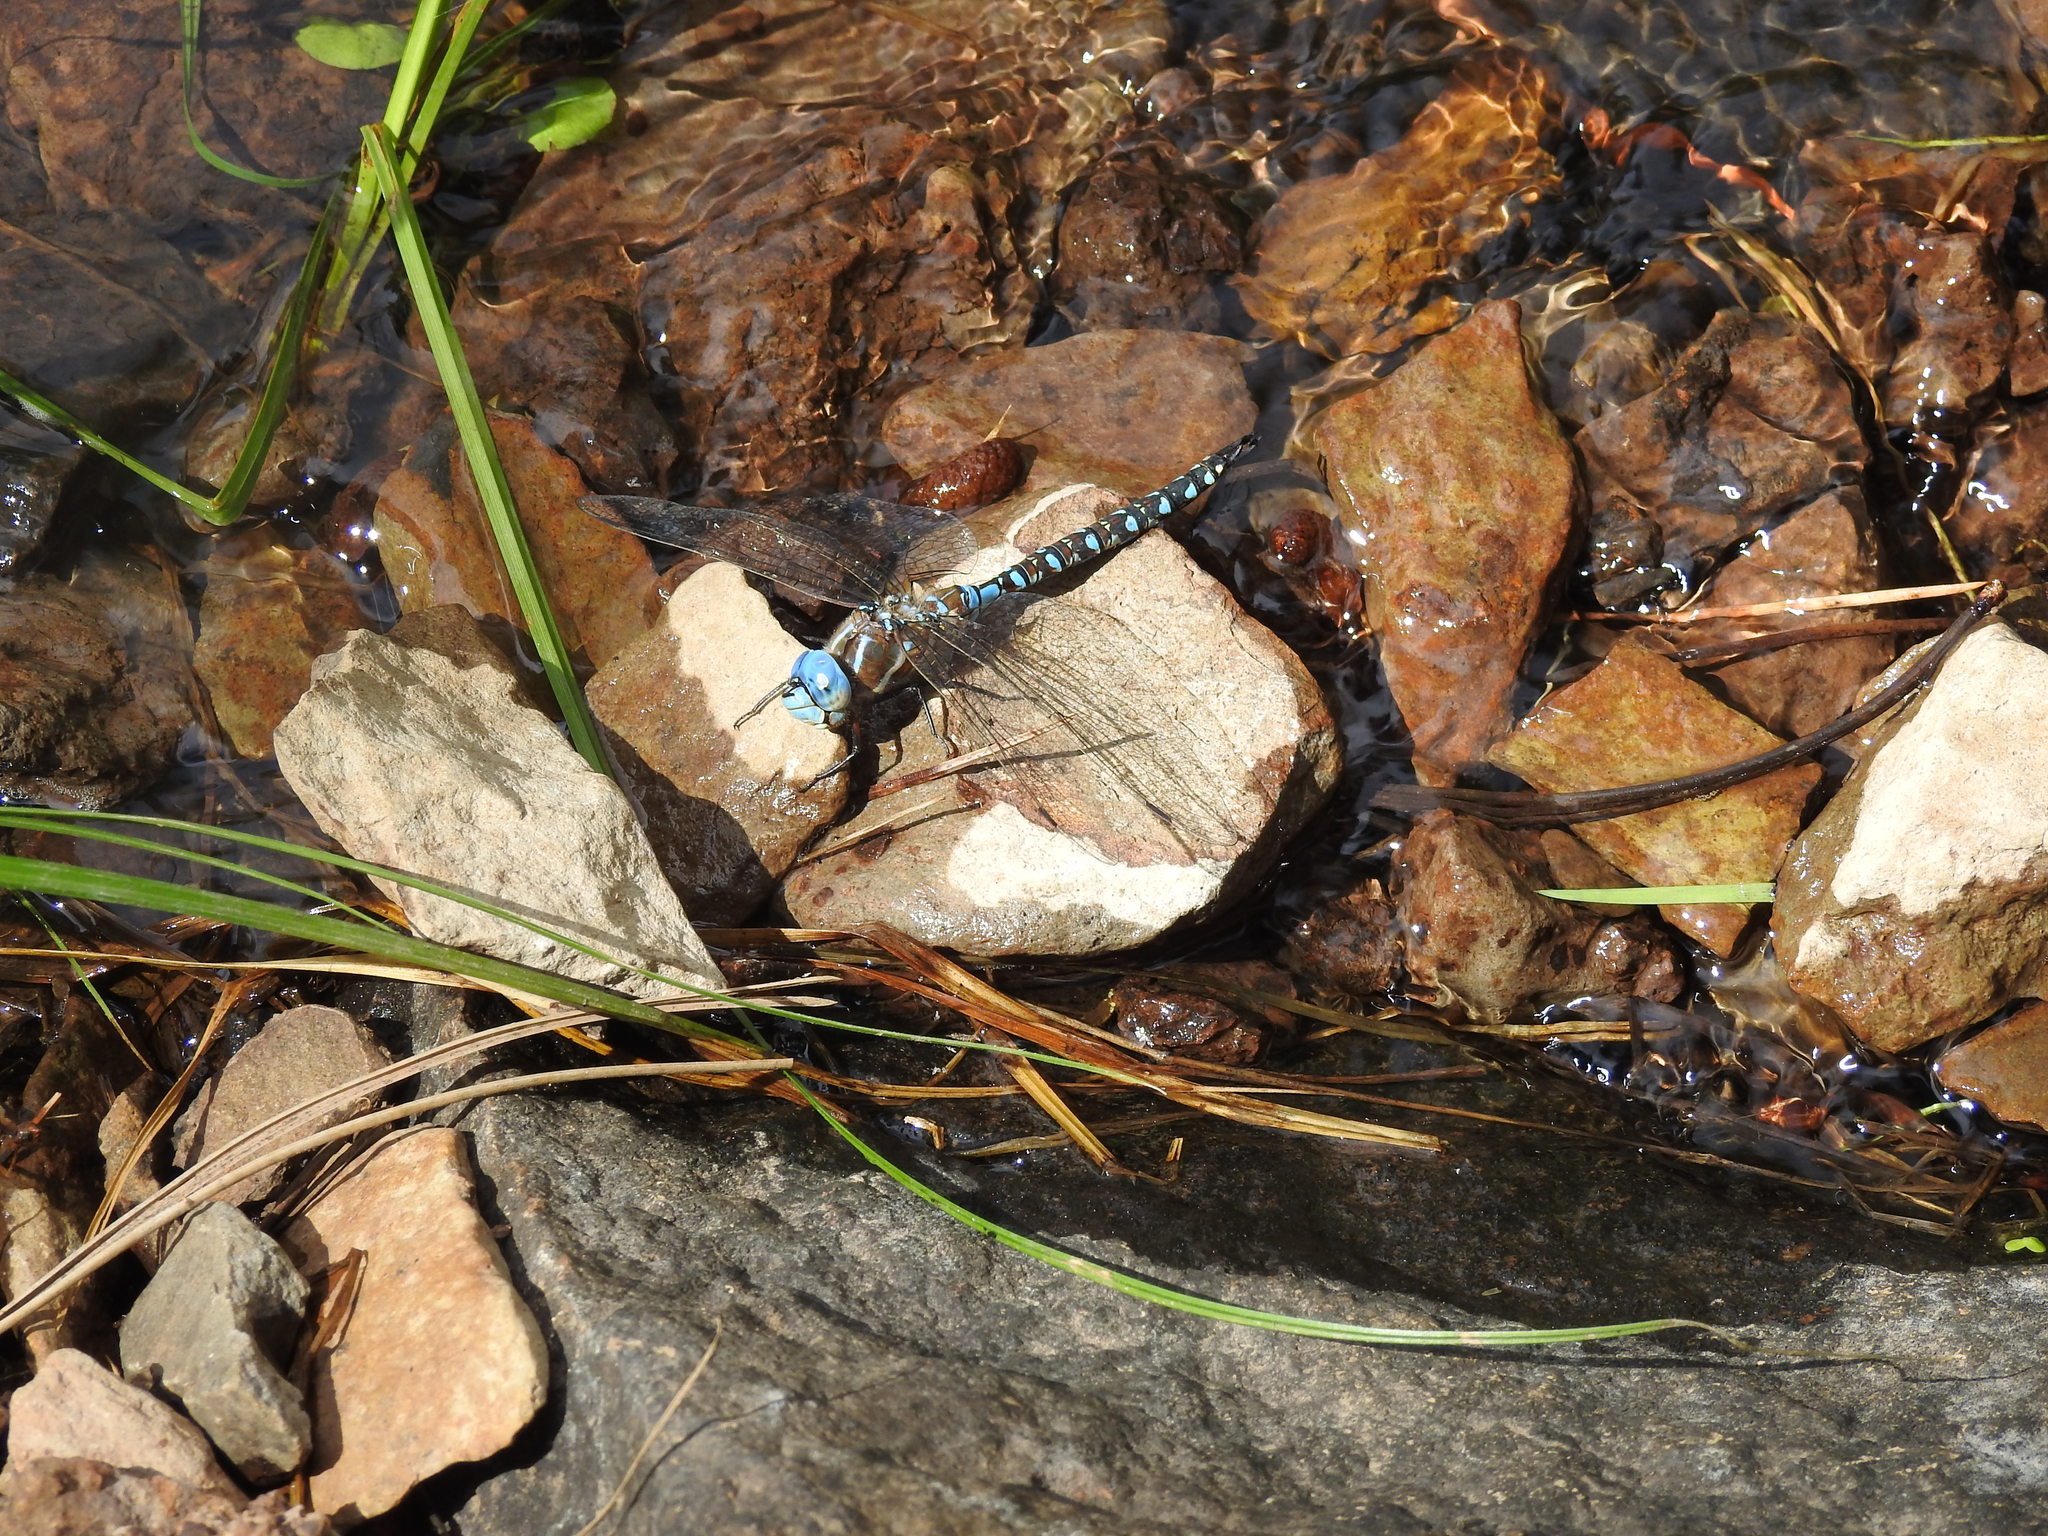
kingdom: Animalia
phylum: Arthropoda
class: Insecta
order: Odonata
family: Aeshnidae
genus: Rhionaeschna
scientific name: Rhionaeschna multicolor
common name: Blue-eyed darner
